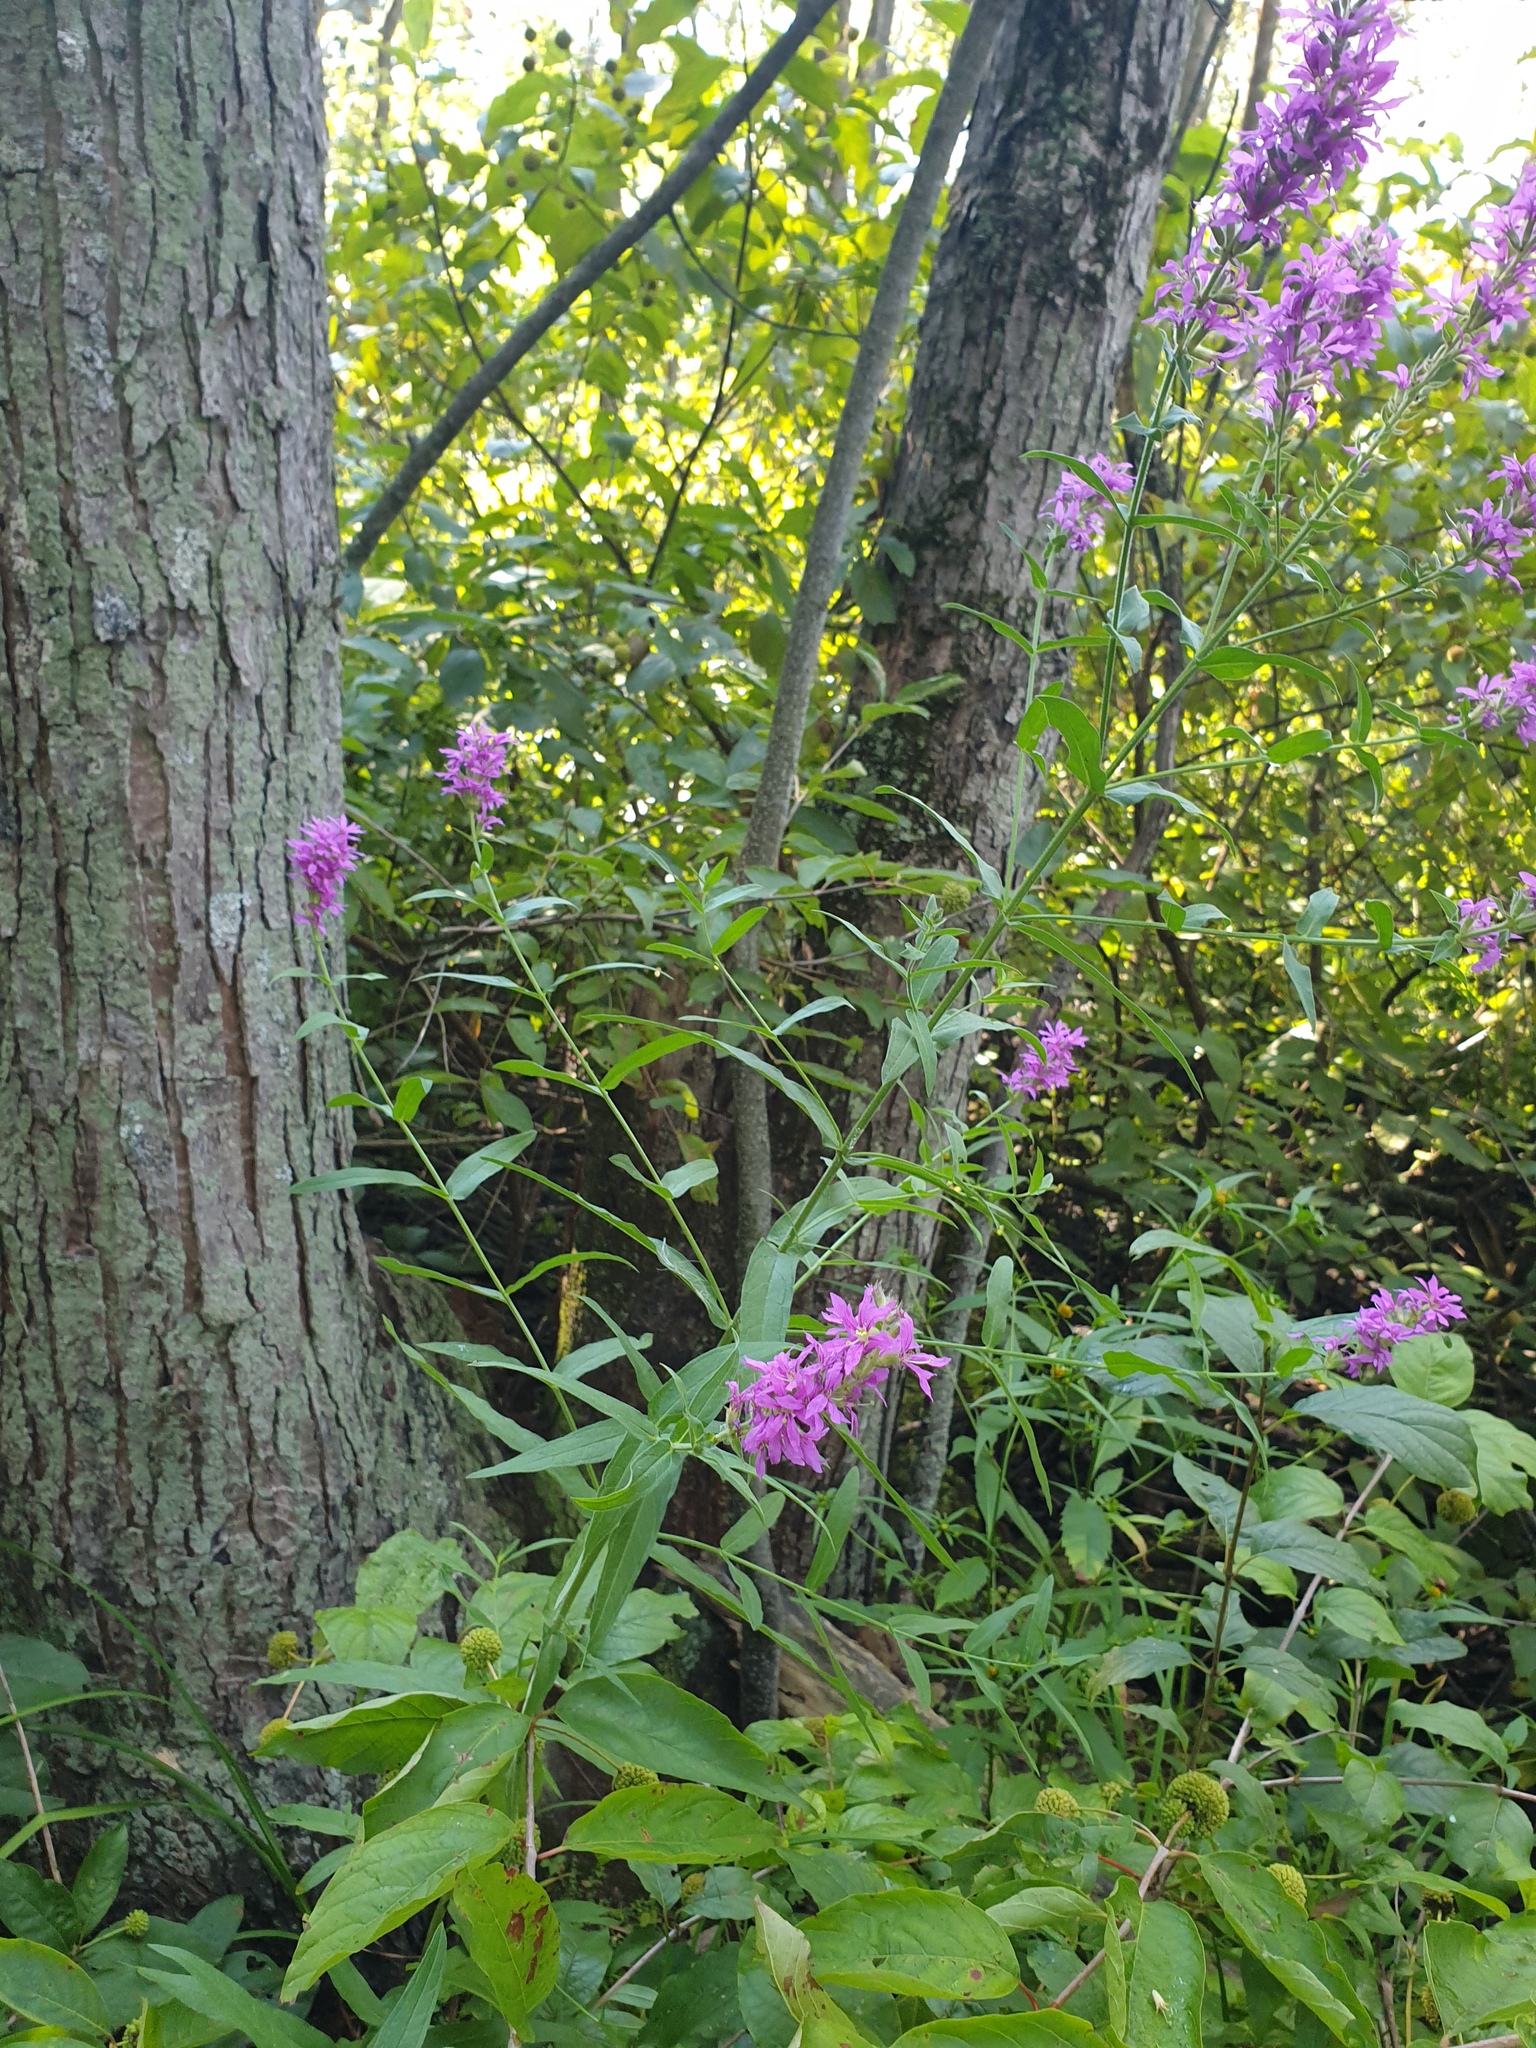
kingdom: Plantae
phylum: Tracheophyta
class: Magnoliopsida
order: Myrtales
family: Lythraceae
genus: Lythrum
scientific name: Lythrum salicaria
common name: Purple loosestrife
